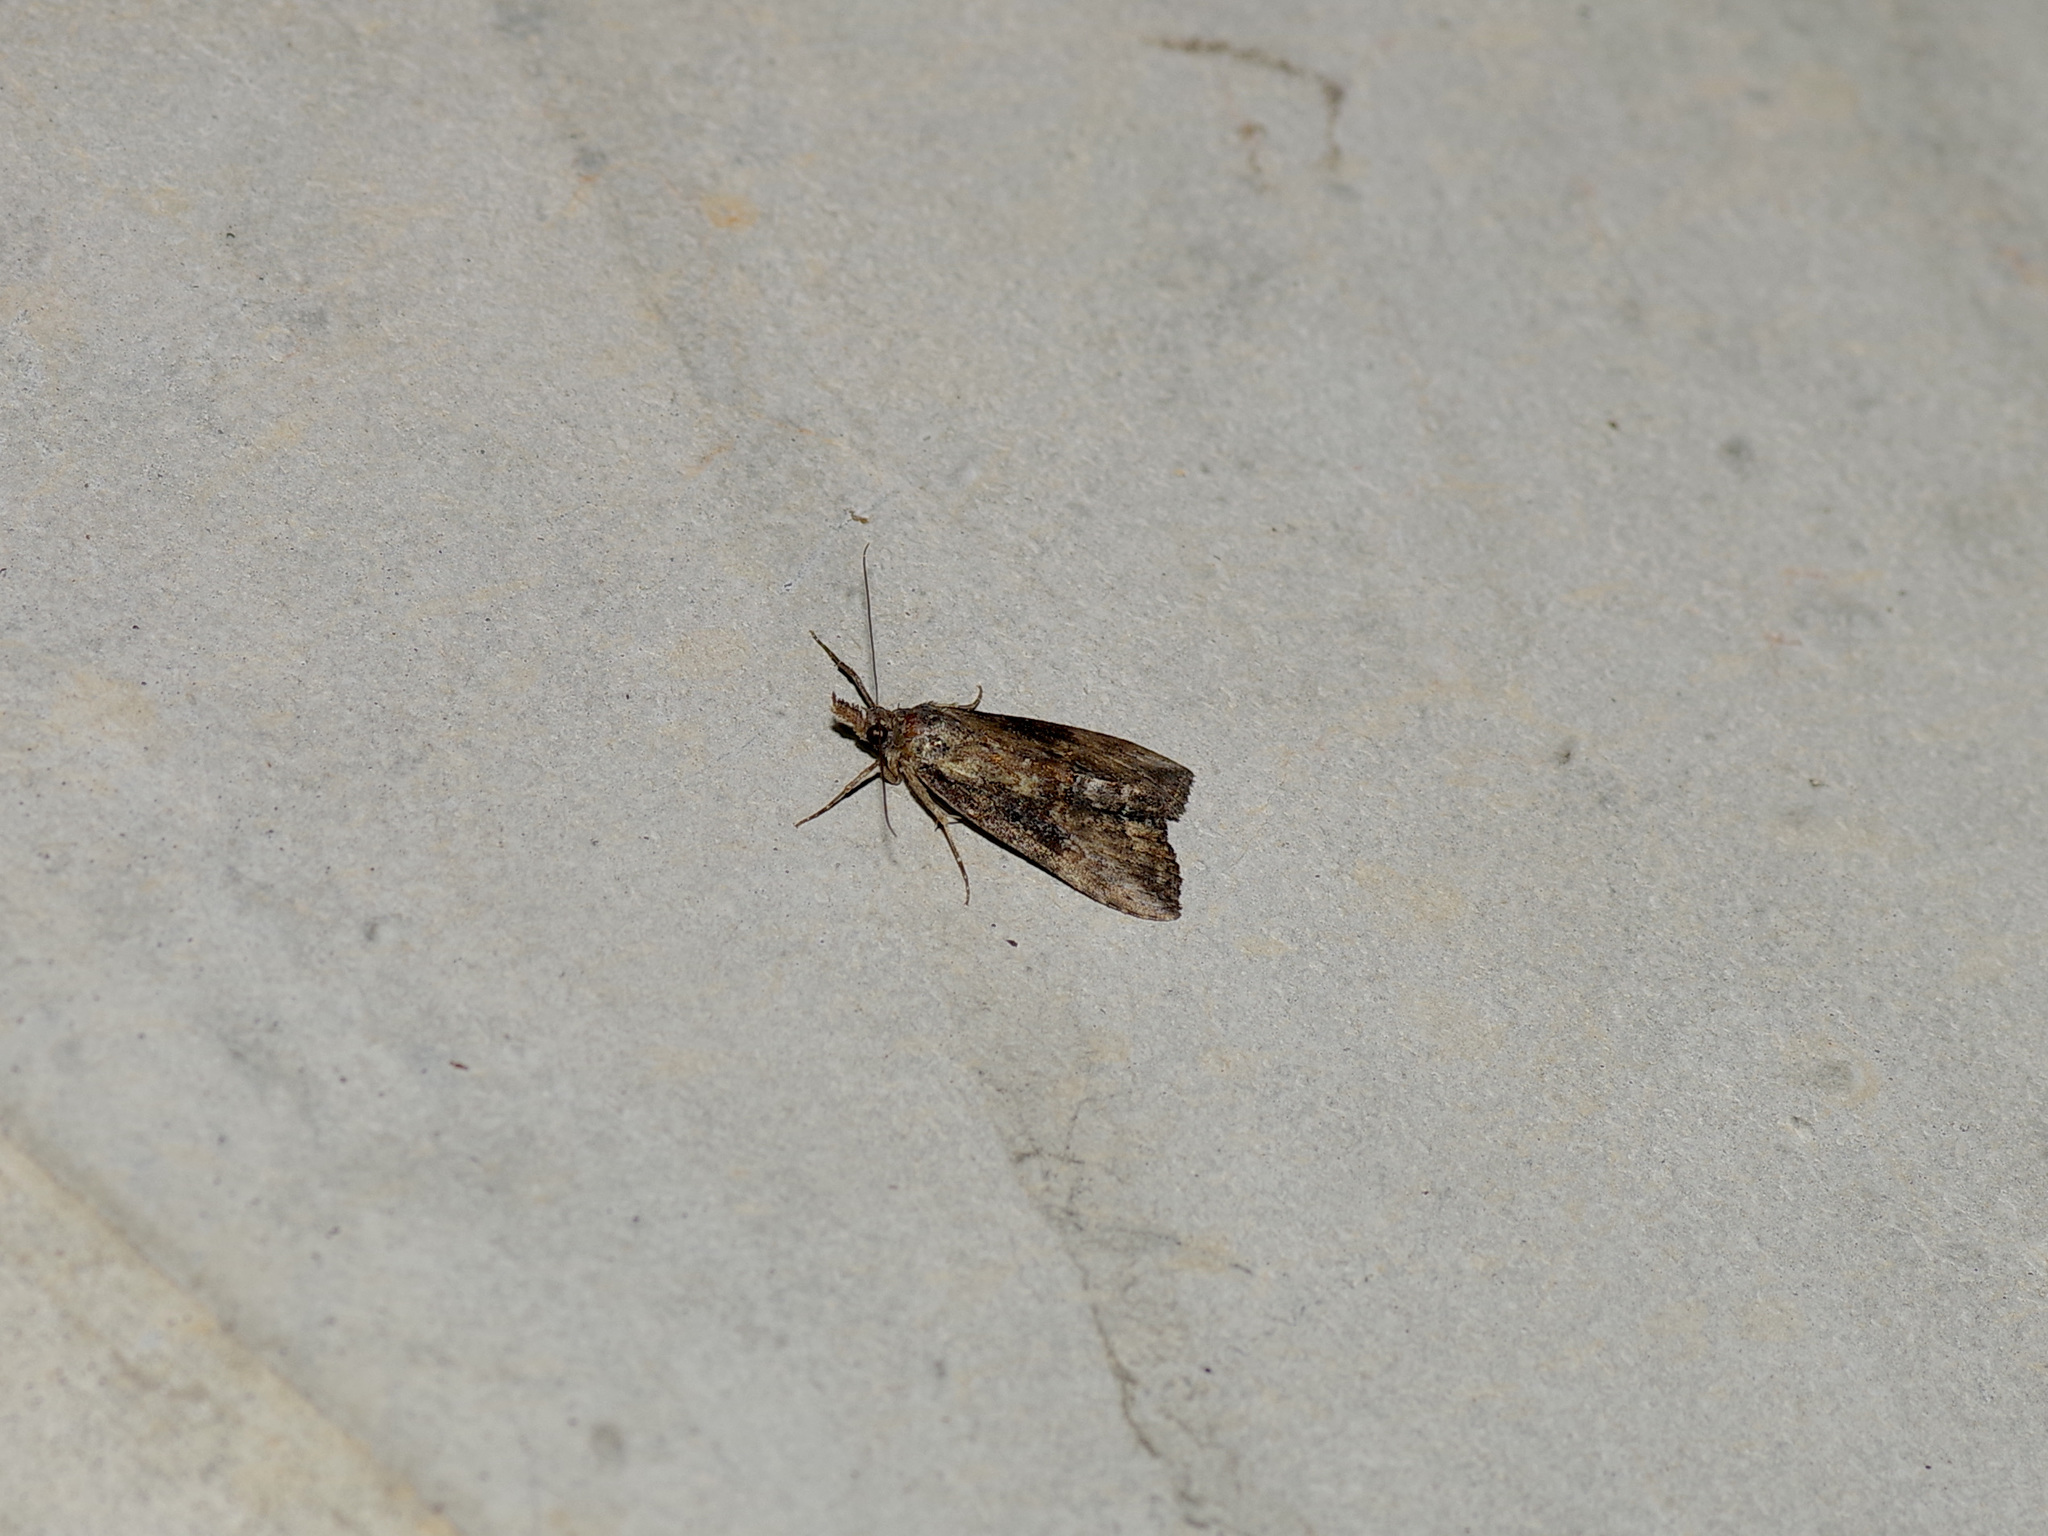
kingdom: Animalia
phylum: Arthropoda
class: Insecta
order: Lepidoptera
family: Erebidae
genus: Hypena
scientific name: Hypena scabra
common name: Green cloverworm
